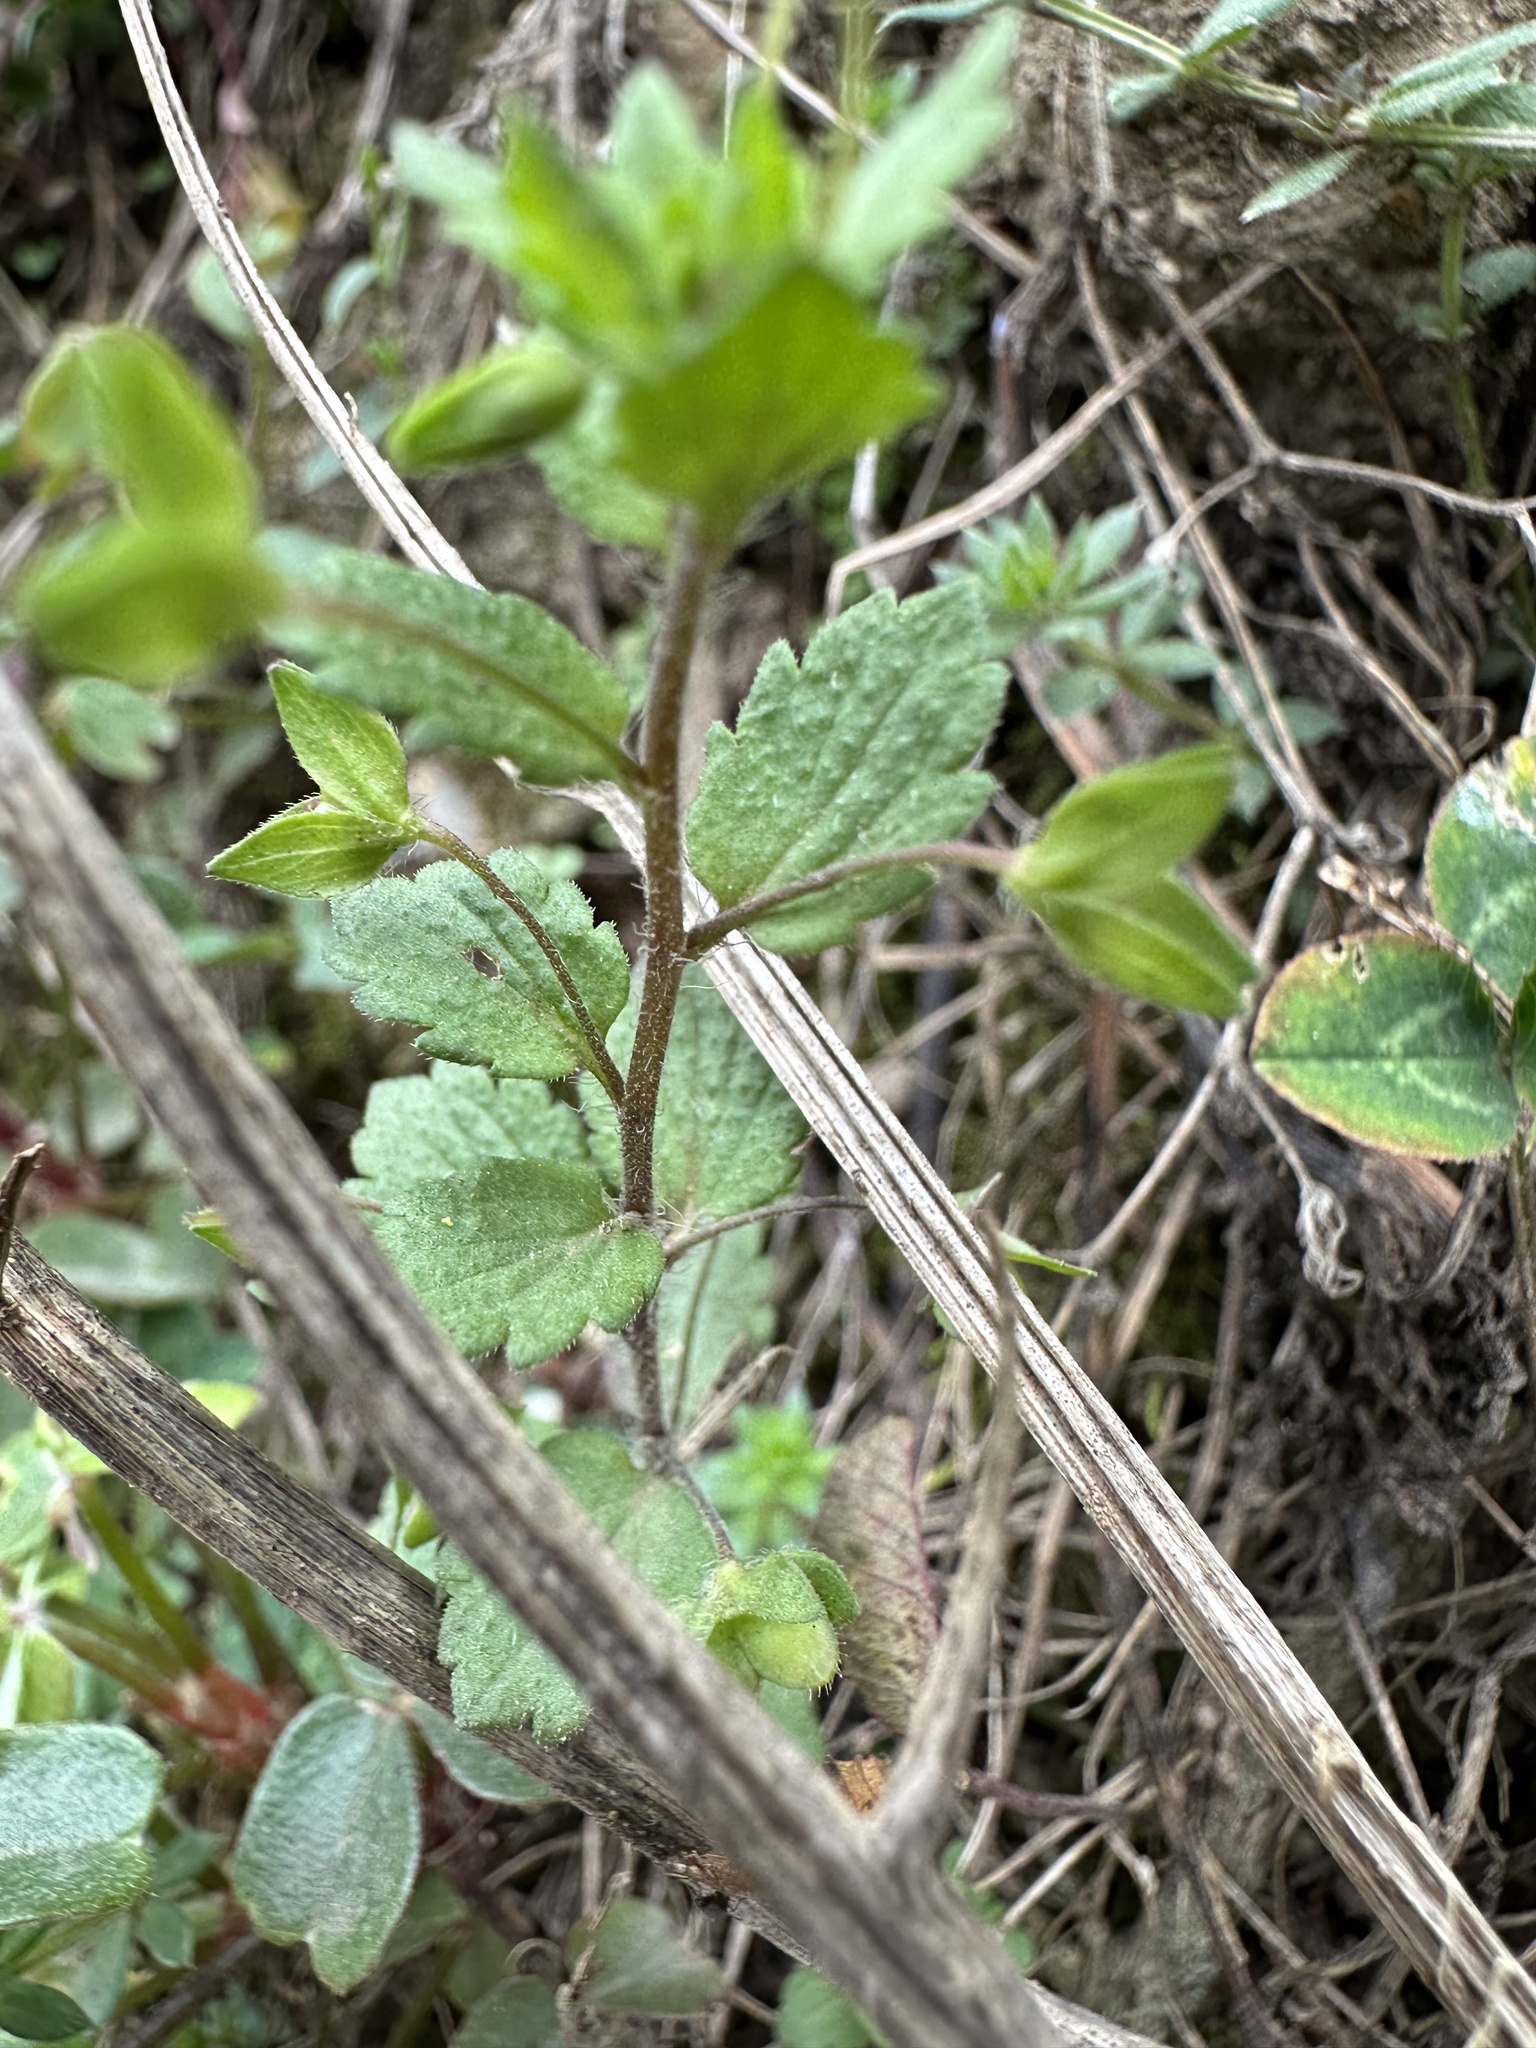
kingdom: Plantae
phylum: Tracheophyta
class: Magnoliopsida
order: Lamiales
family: Plantaginaceae
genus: Veronica
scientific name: Veronica persica
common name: Common field-speedwell
